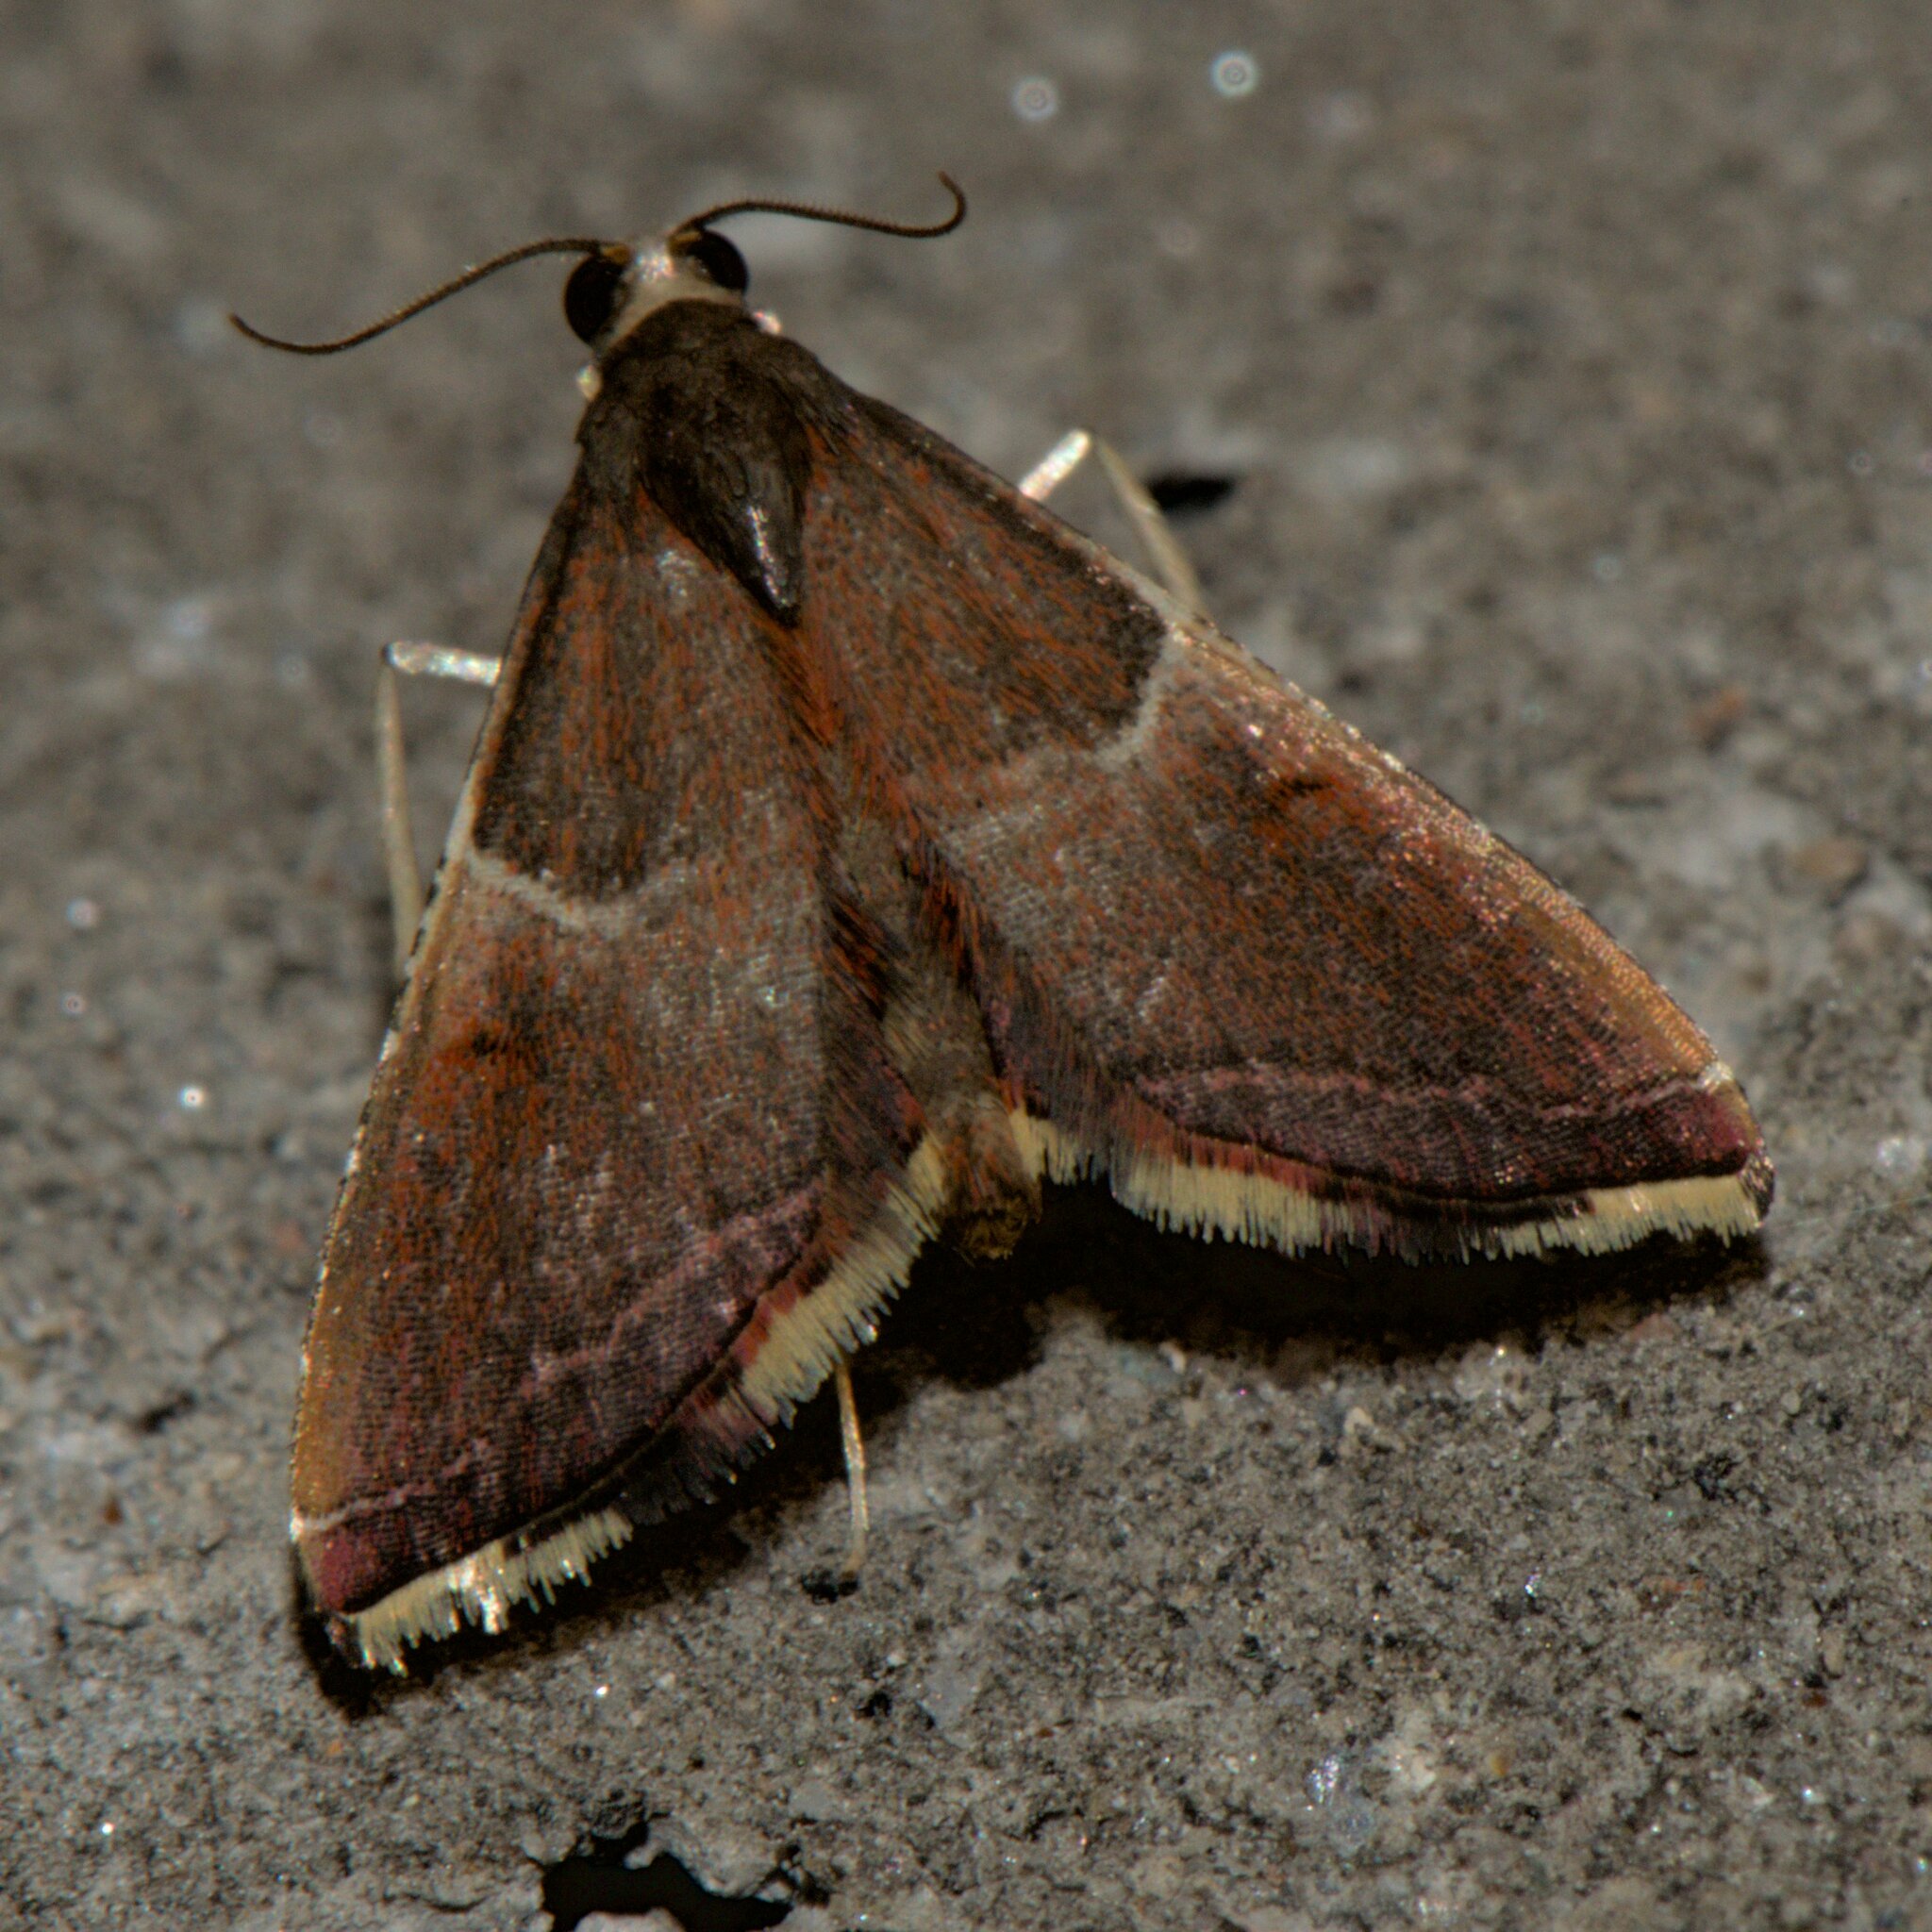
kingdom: Animalia
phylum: Arthropoda
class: Insecta
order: Lepidoptera
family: Pyralidae
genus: Endotricha
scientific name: Endotricha similata
